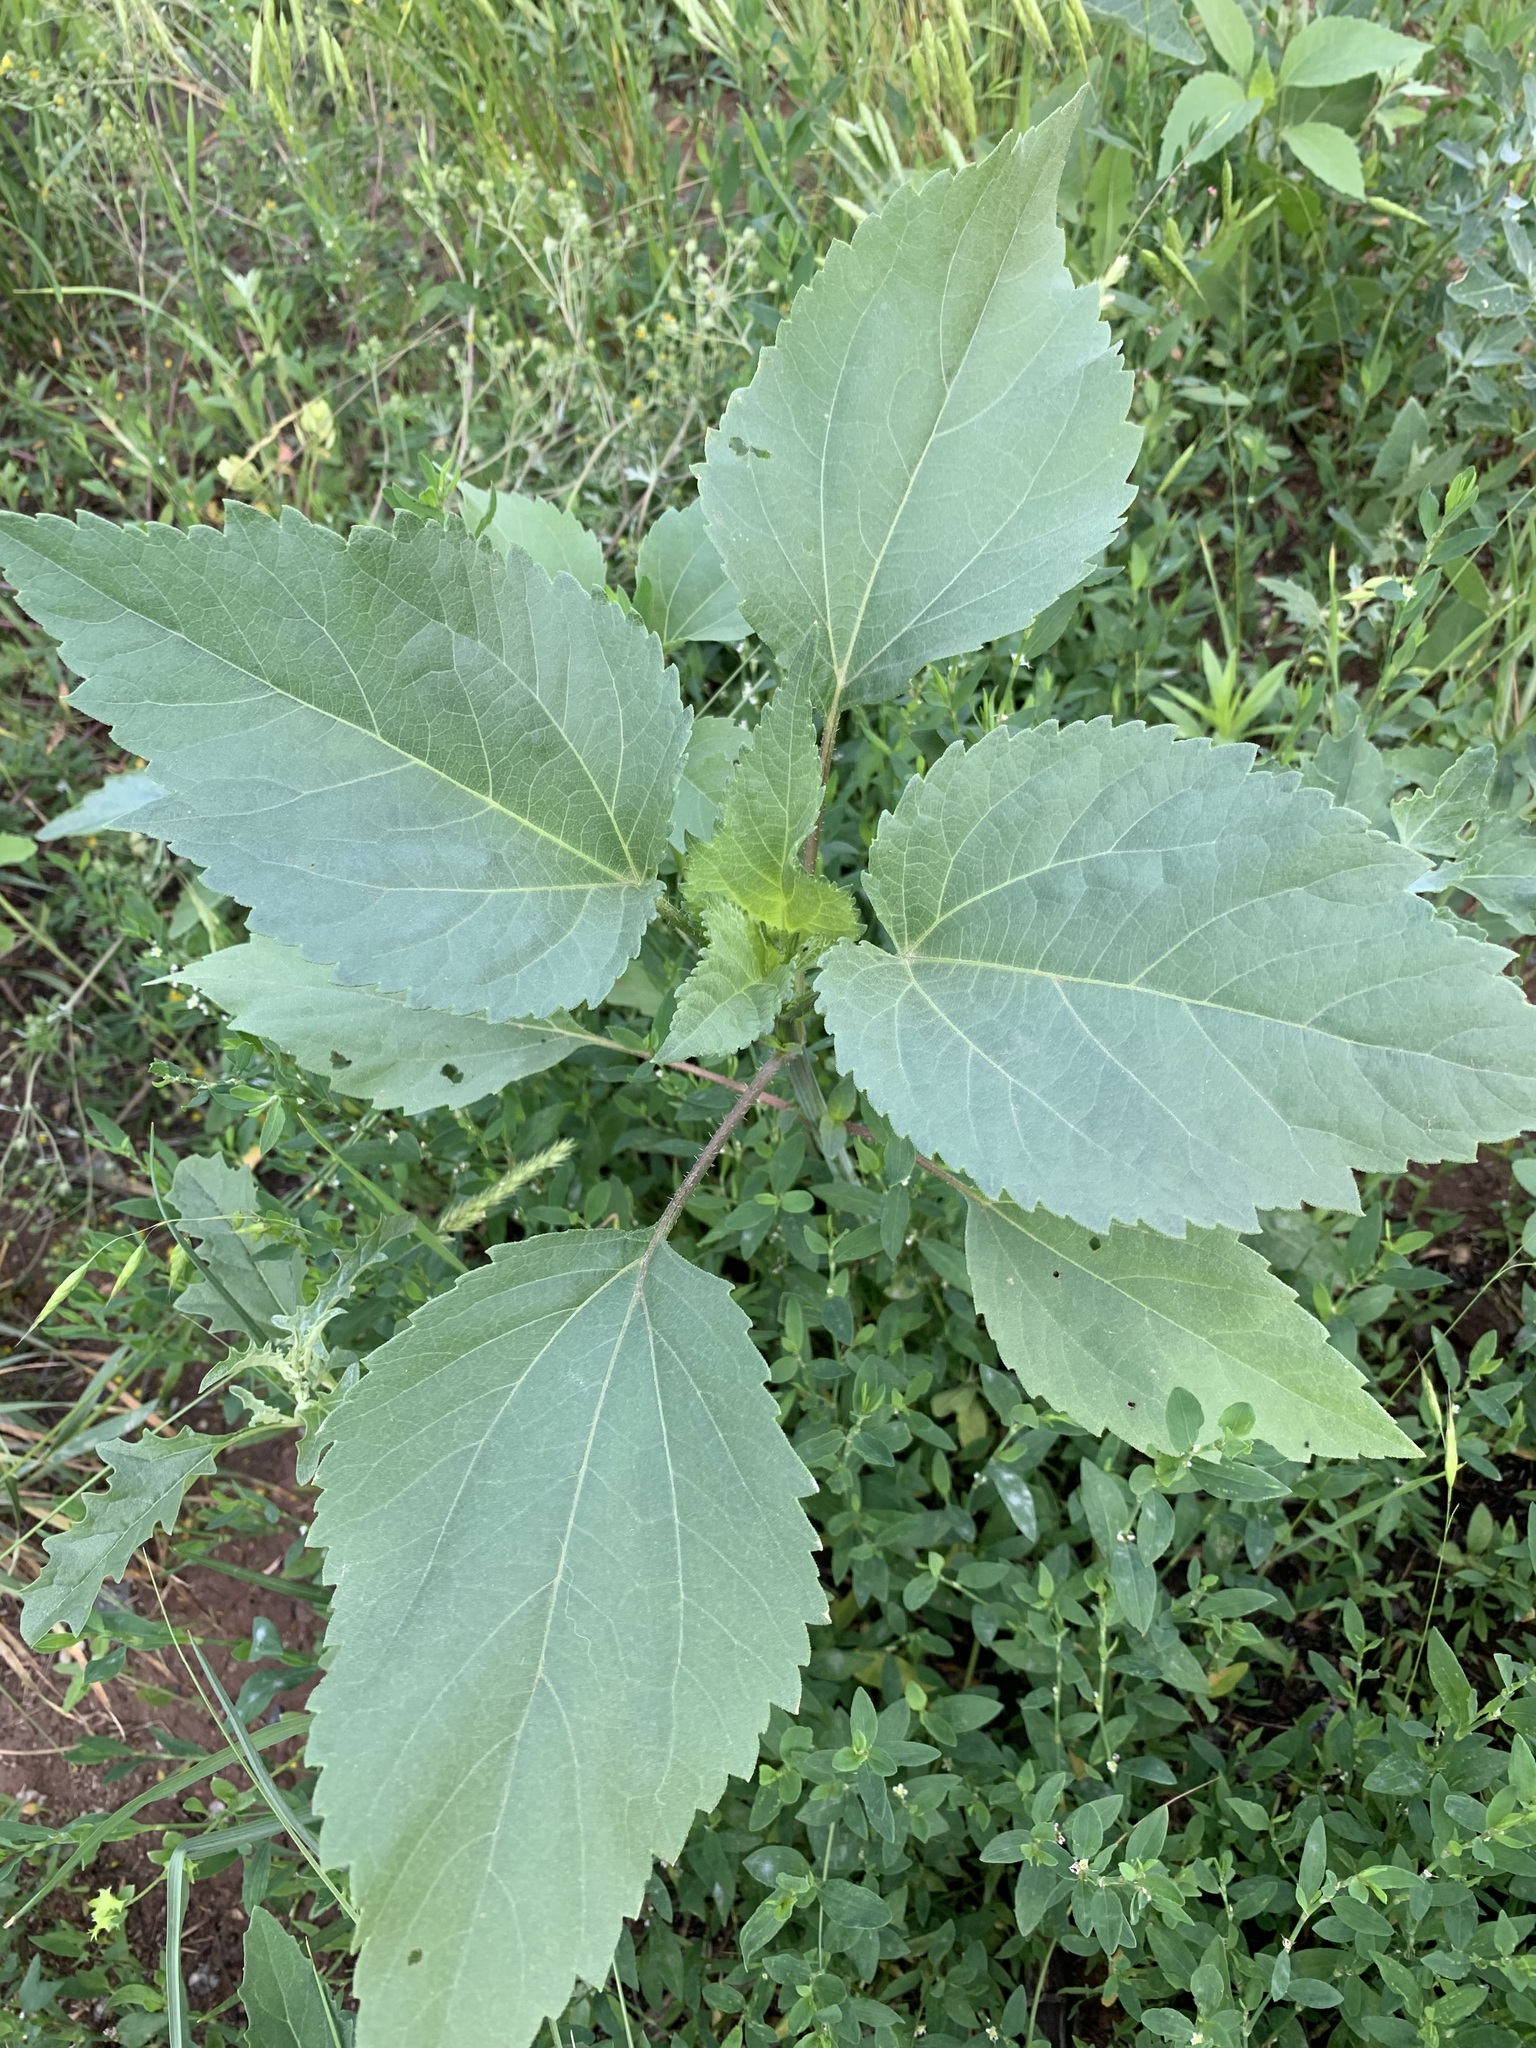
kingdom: Plantae
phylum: Tracheophyta
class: Magnoliopsida
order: Asterales
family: Asteraceae
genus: Cyclachaena
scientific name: Cyclachaena xanthiifolia
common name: Giant sumpweed
